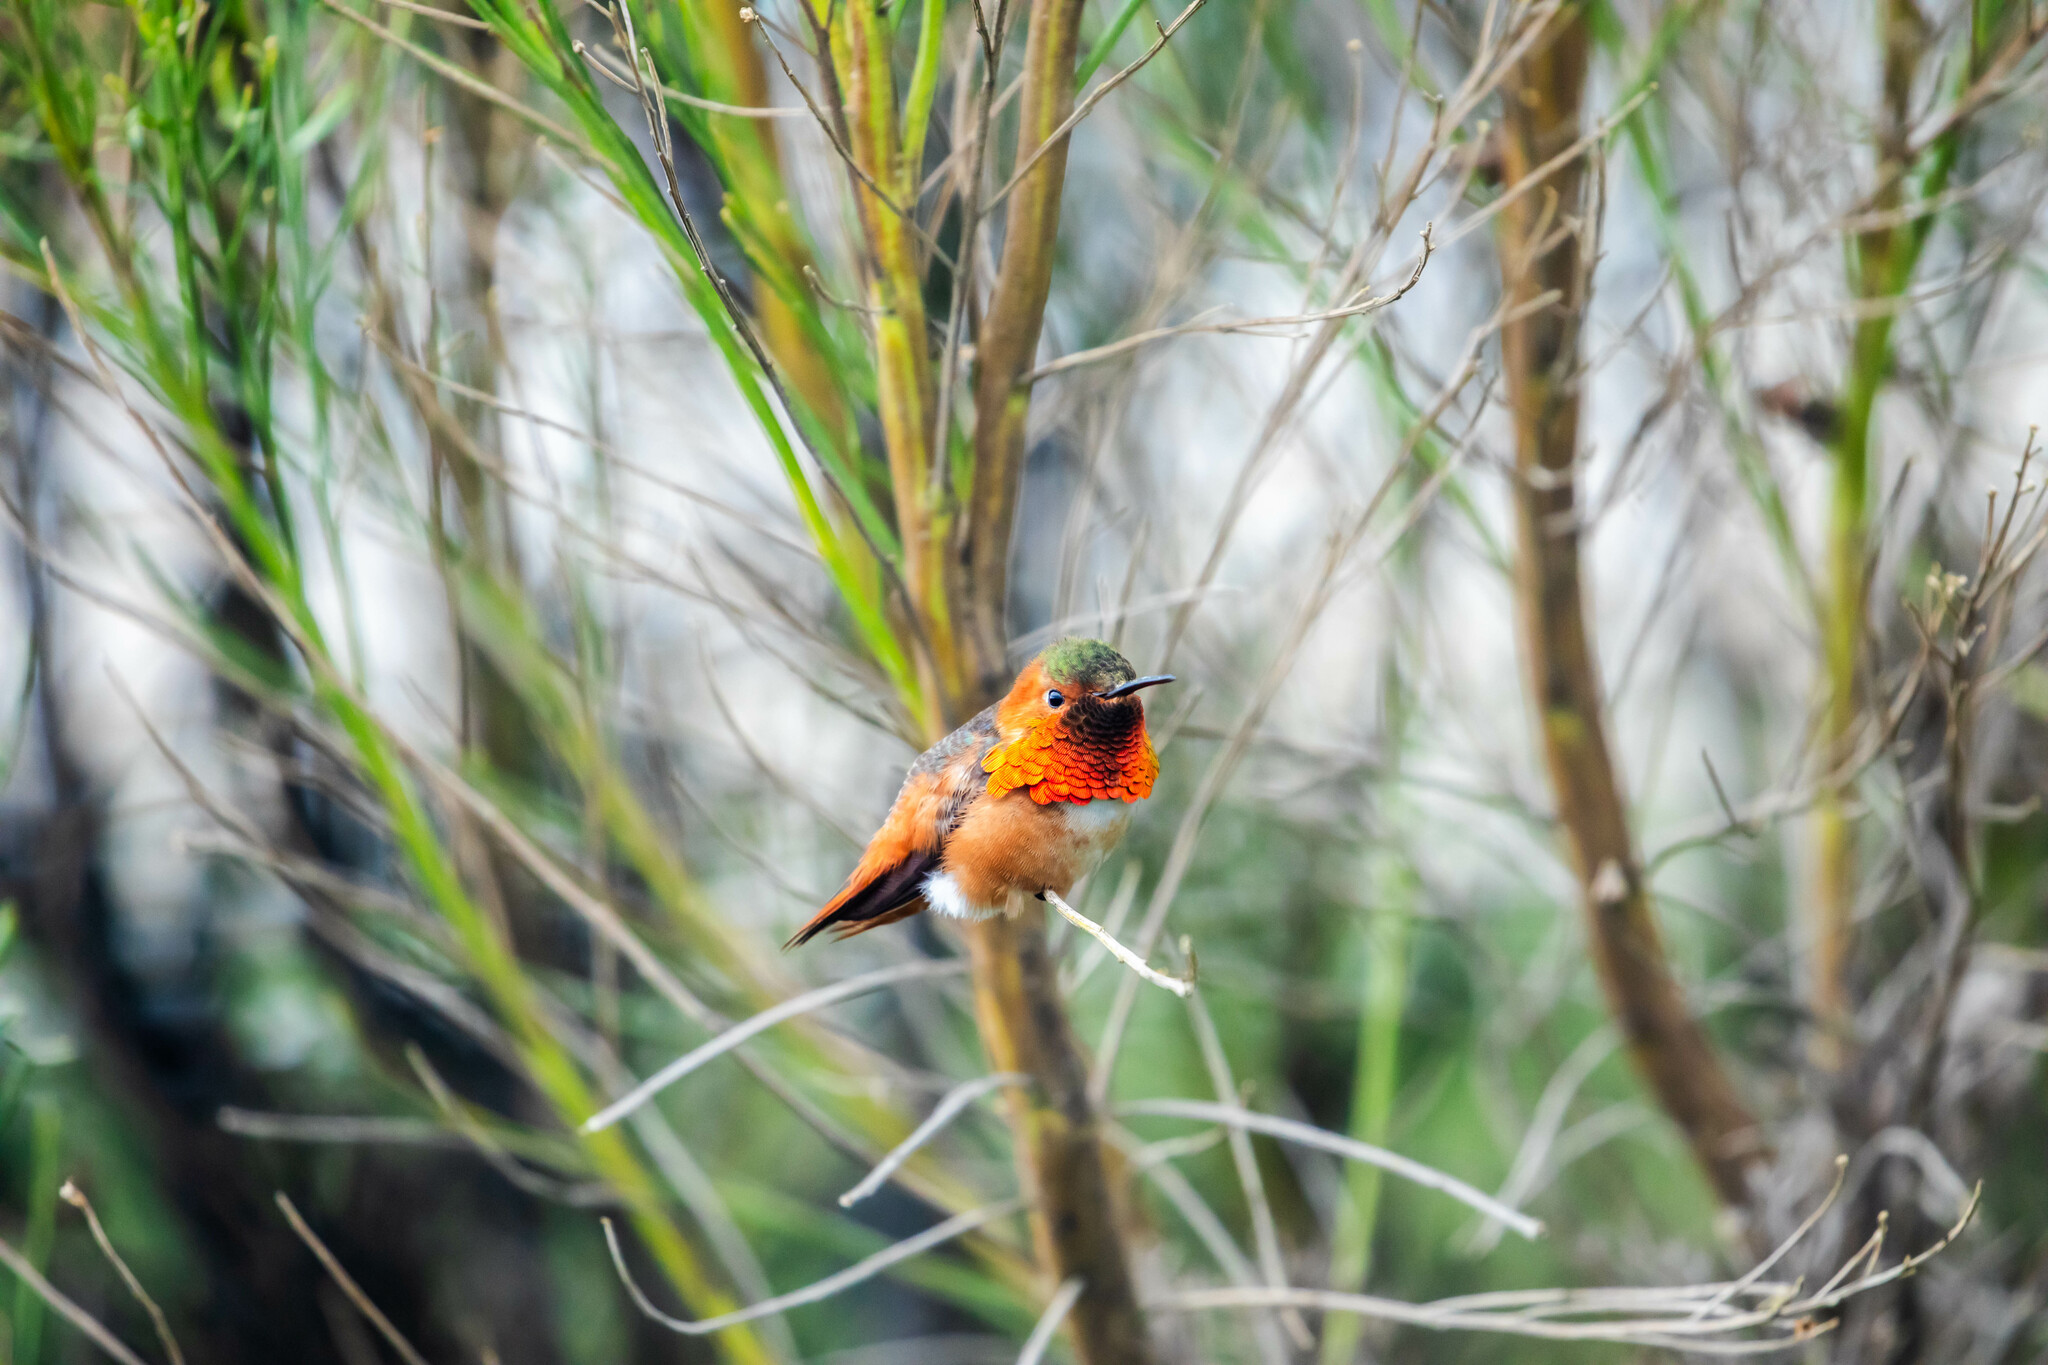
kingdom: Animalia
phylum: Chordata
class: Aves
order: Apodiformes
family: Trochilidae
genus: Selasphorus
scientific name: Selasphorus sasin
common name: Allen's hummingbird
